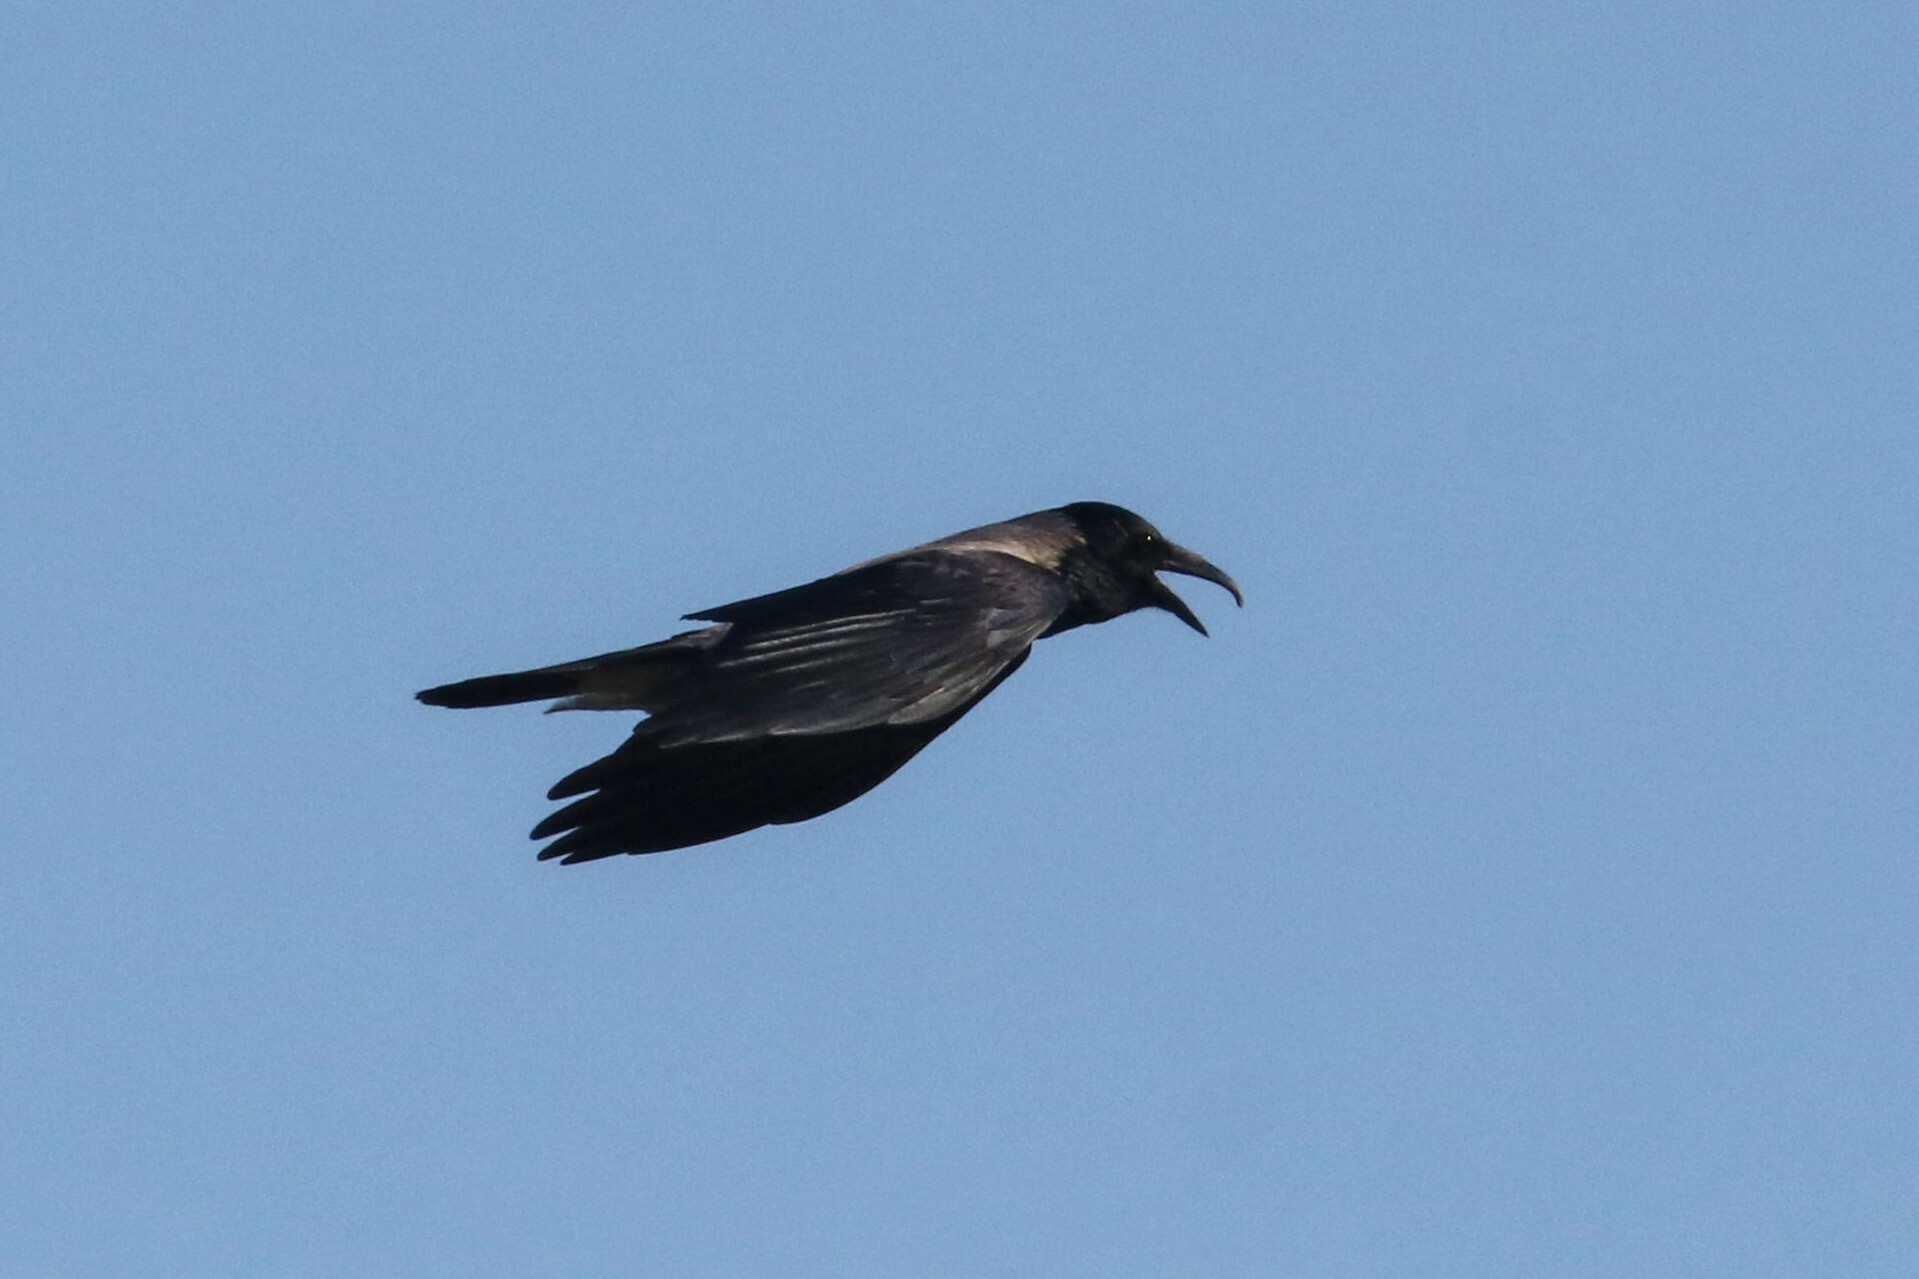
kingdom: Animalia
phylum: Chordata
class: Aves
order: Passeriformes
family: Corvidae
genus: Corvus
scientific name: Corvus cornix
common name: Hooded crow
